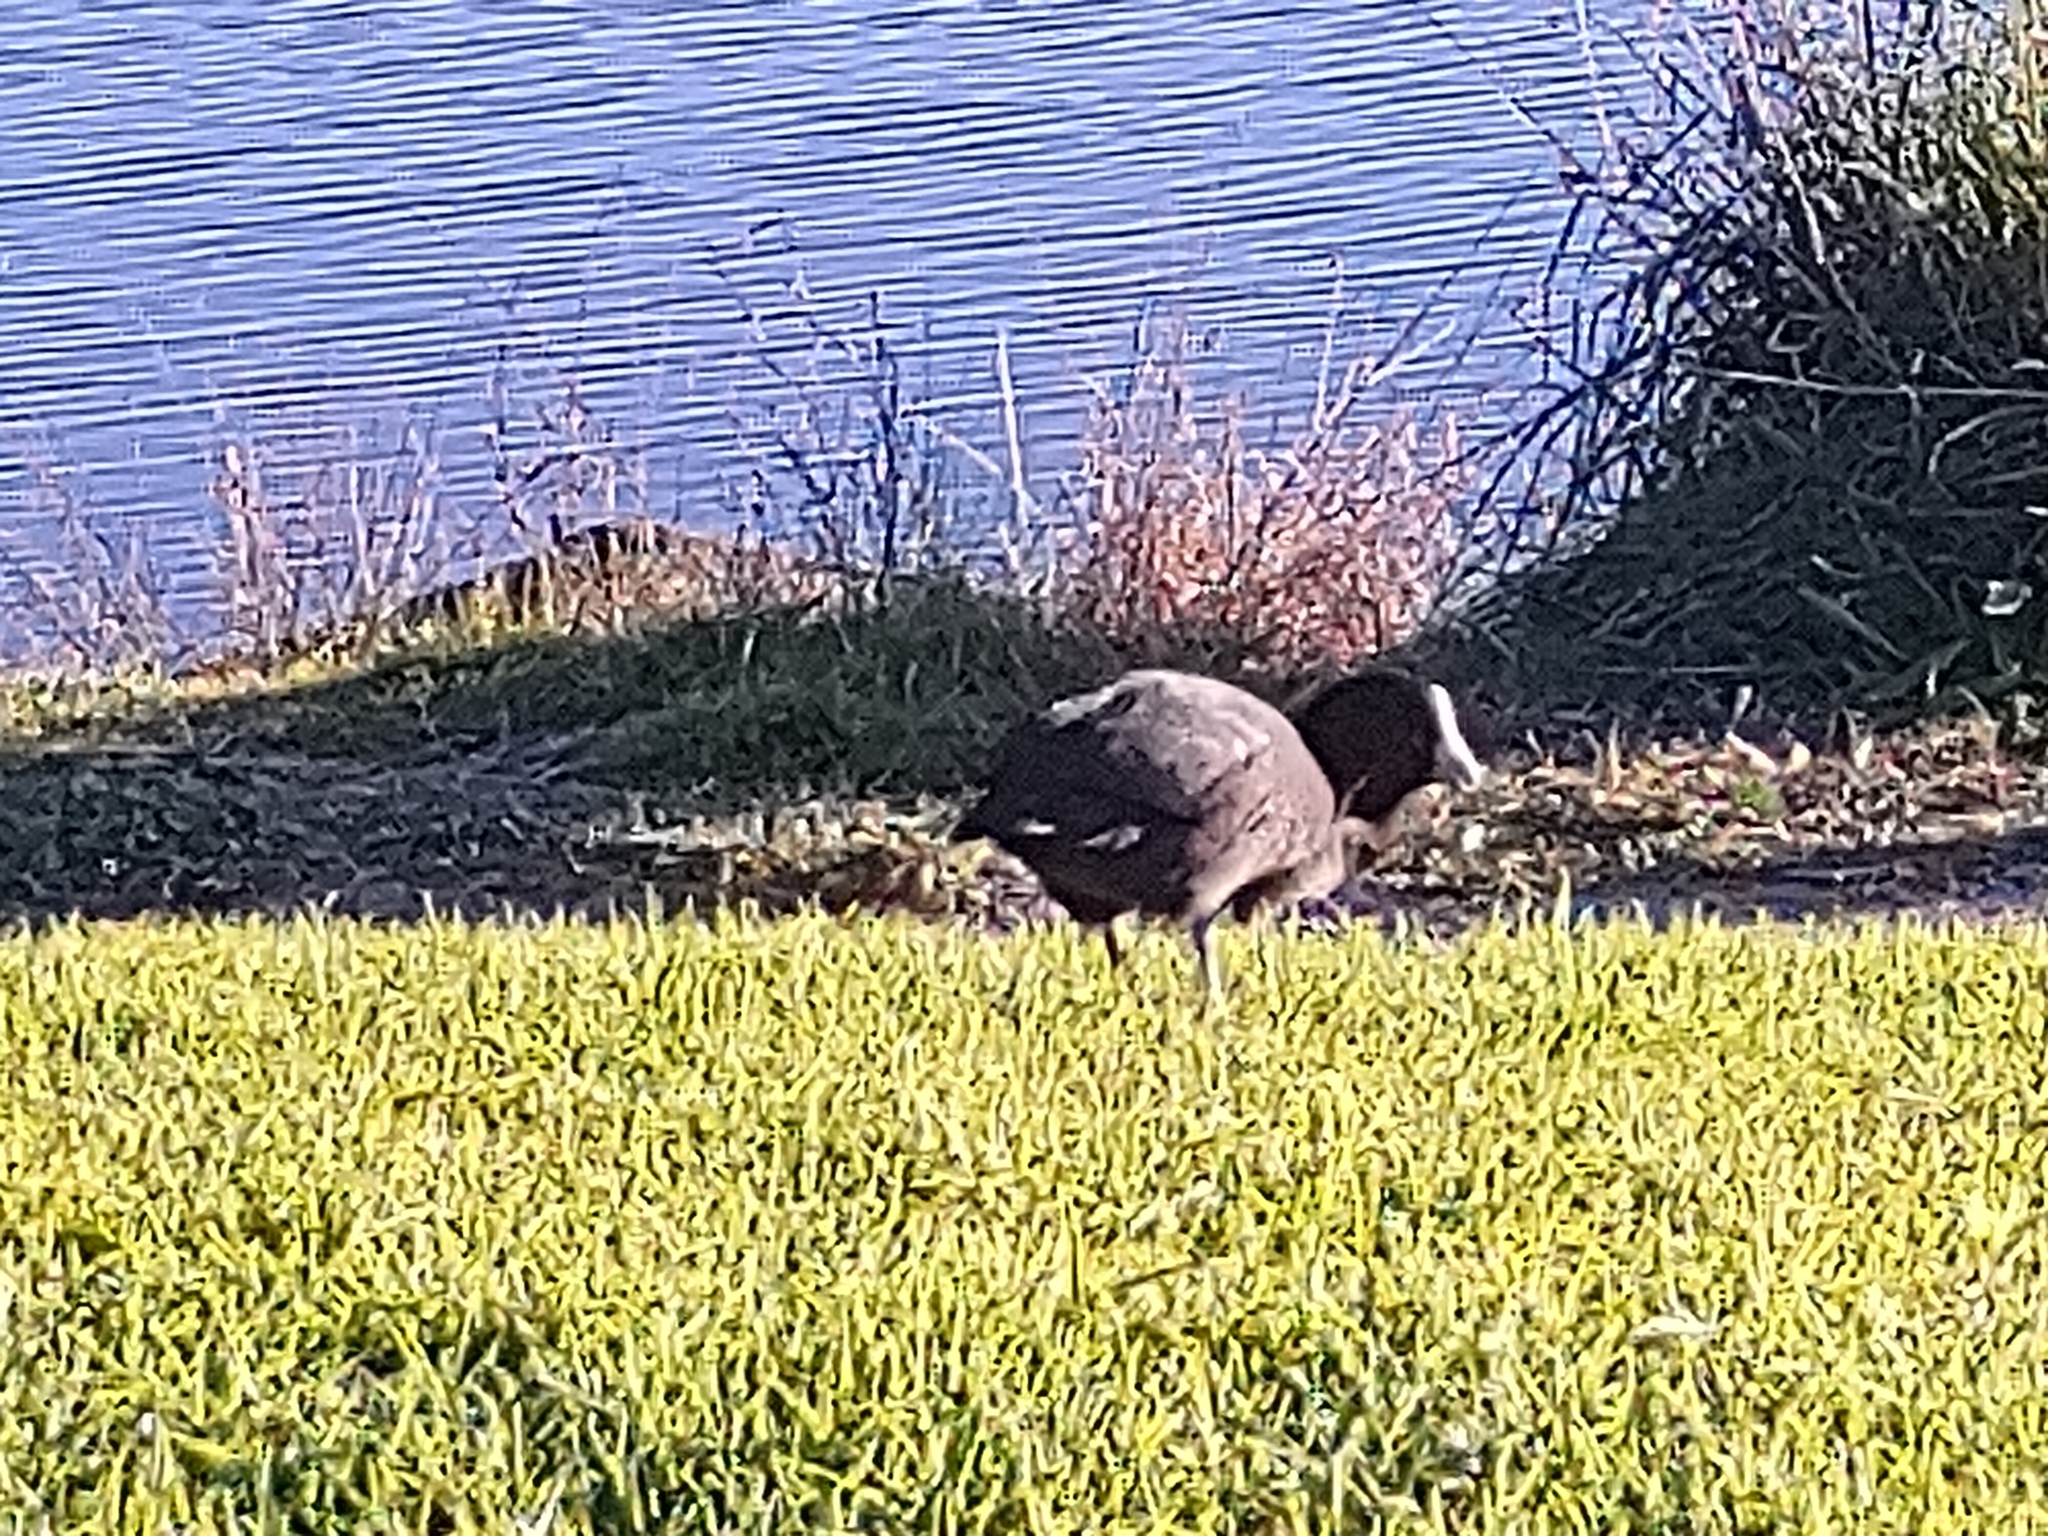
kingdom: Animalia
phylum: Chordata
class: Aves
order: Gruiformes
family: Rallidae
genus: Fulica
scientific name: Fulica atra
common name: Eurasian coot
